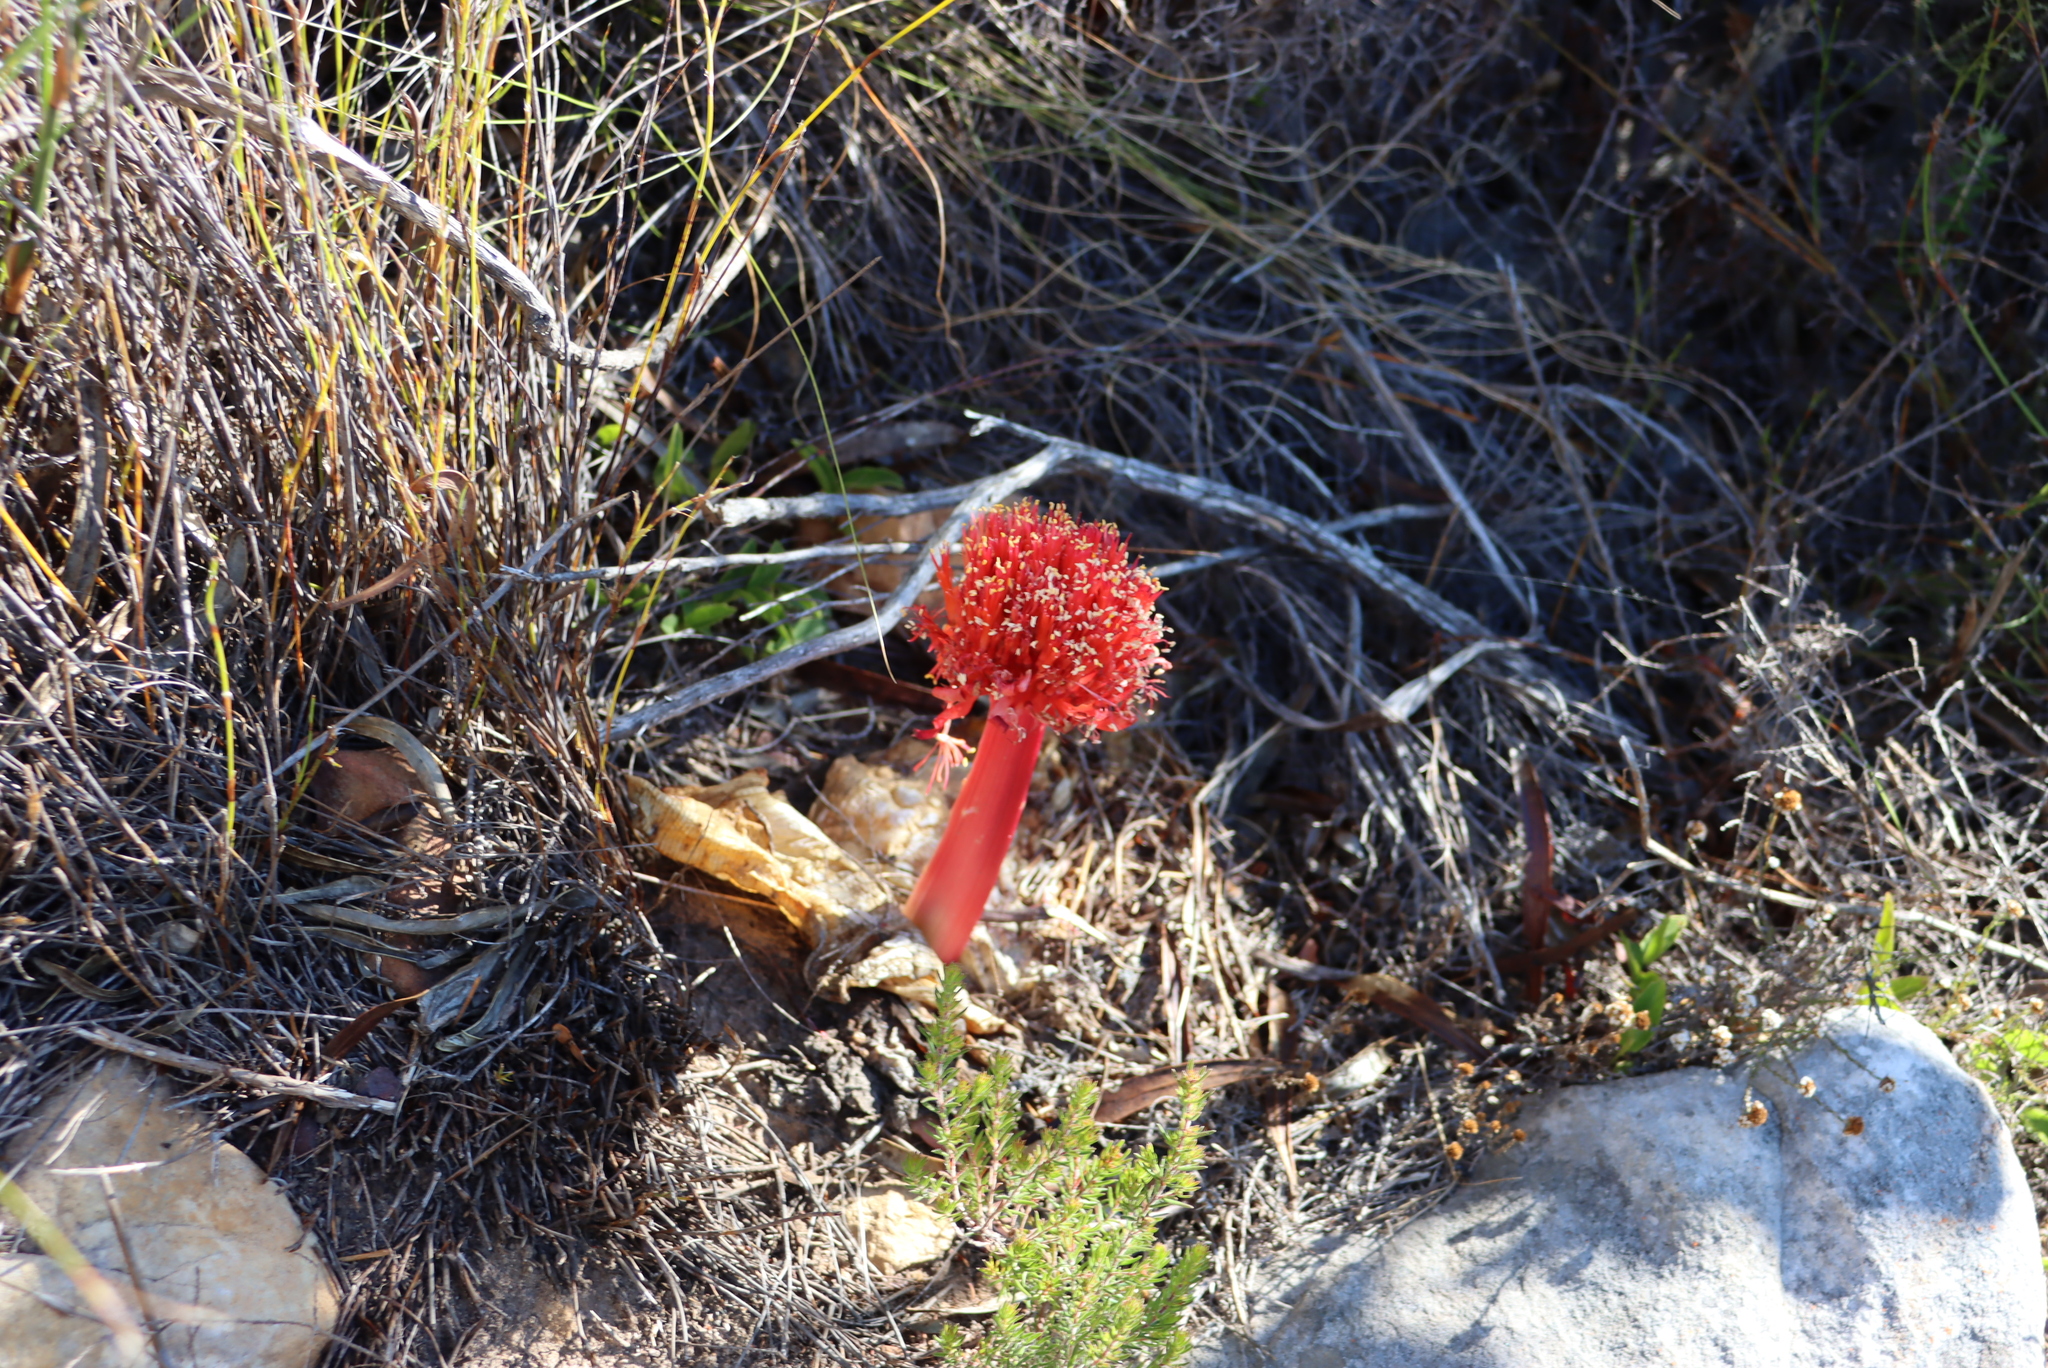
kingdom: Plantae
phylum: Tracheophyta
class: Liliopsida
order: Asparagales
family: Amaryllidaceae
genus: Haemanthus
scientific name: Haemanthus sanguineus
